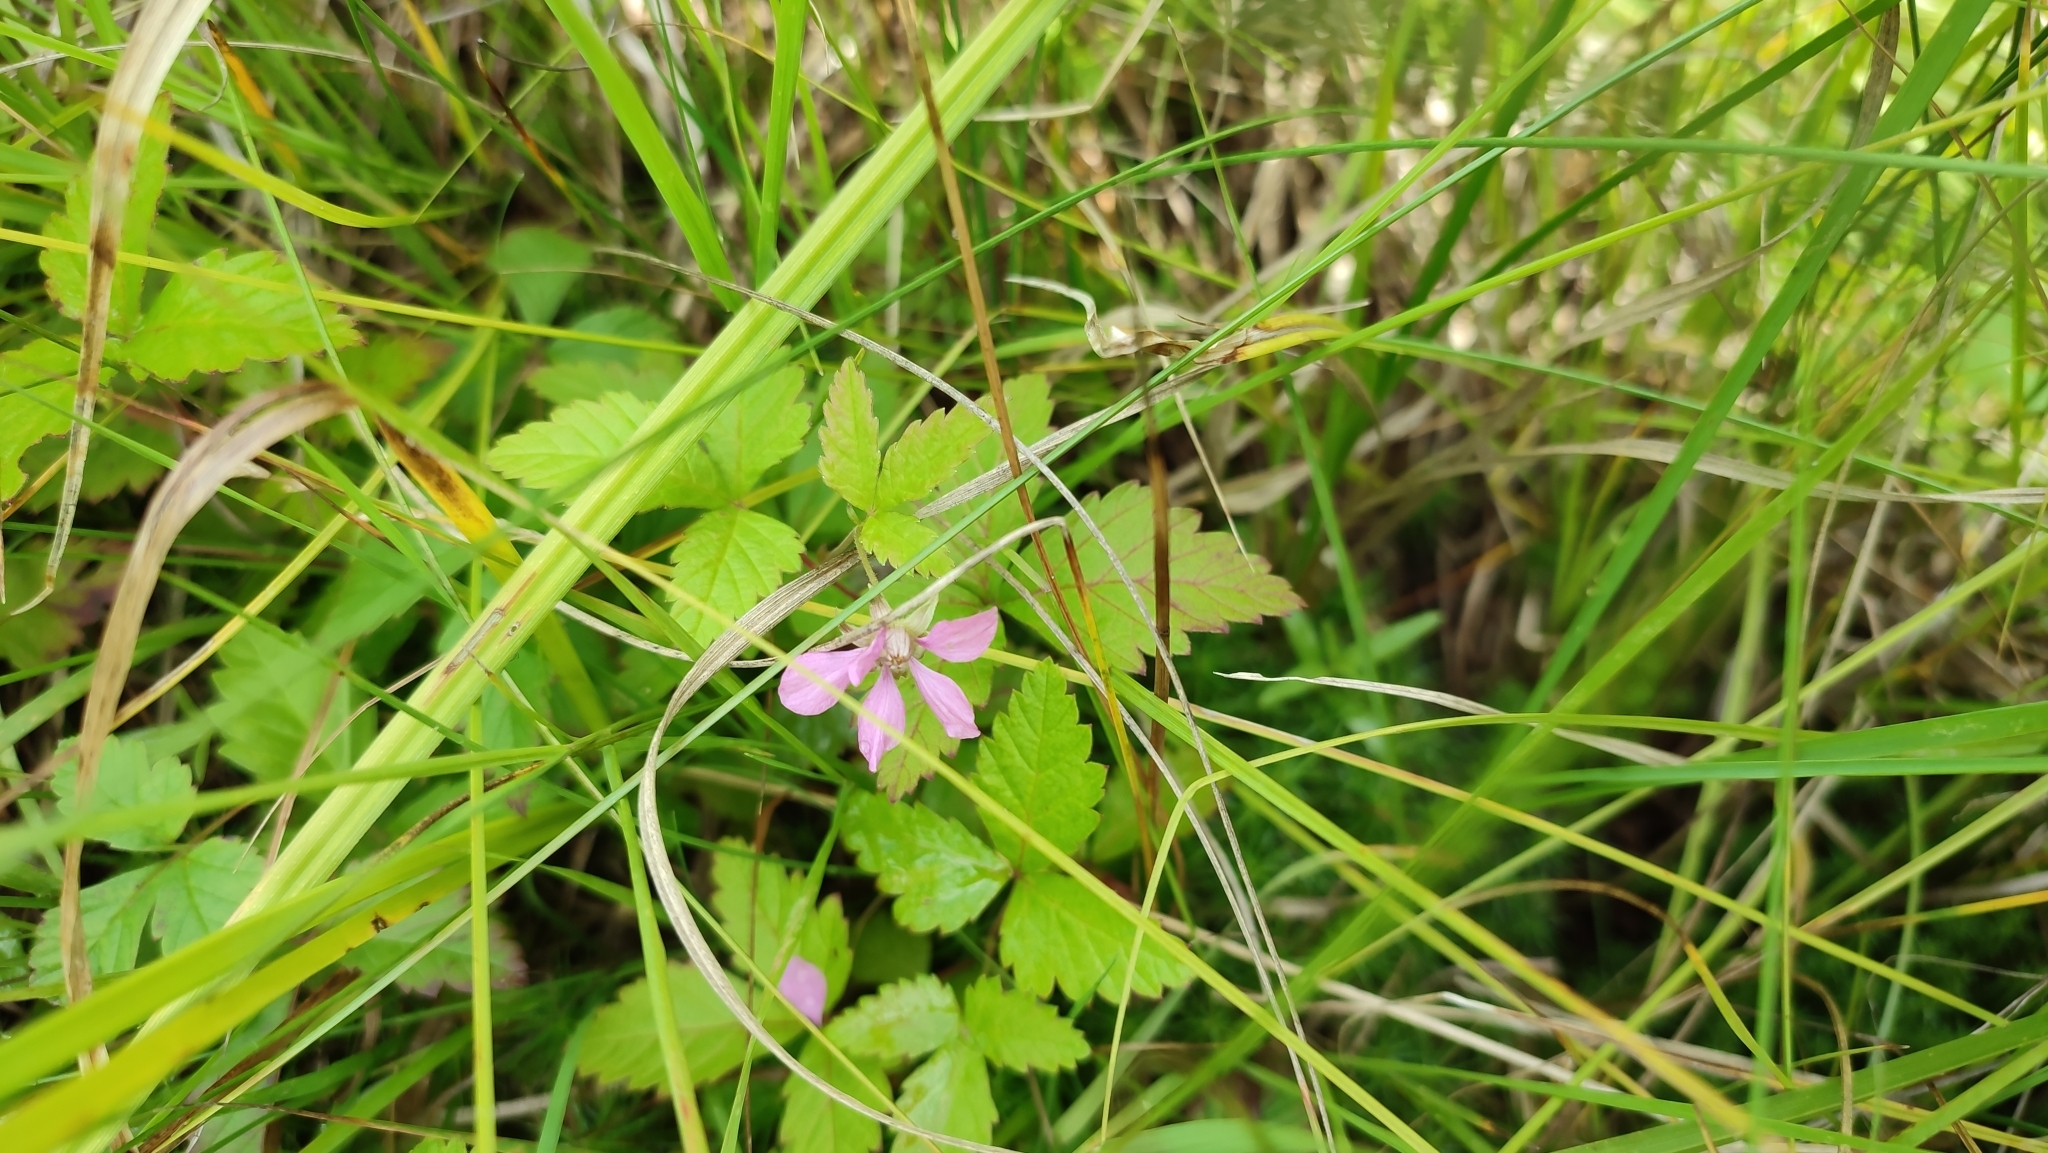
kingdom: Plantae
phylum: Tracheophyta
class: Magnoliopsida
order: Rosales
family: Rosaceae
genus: Rubus
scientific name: Rubus arcticus
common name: Arctic bramble
